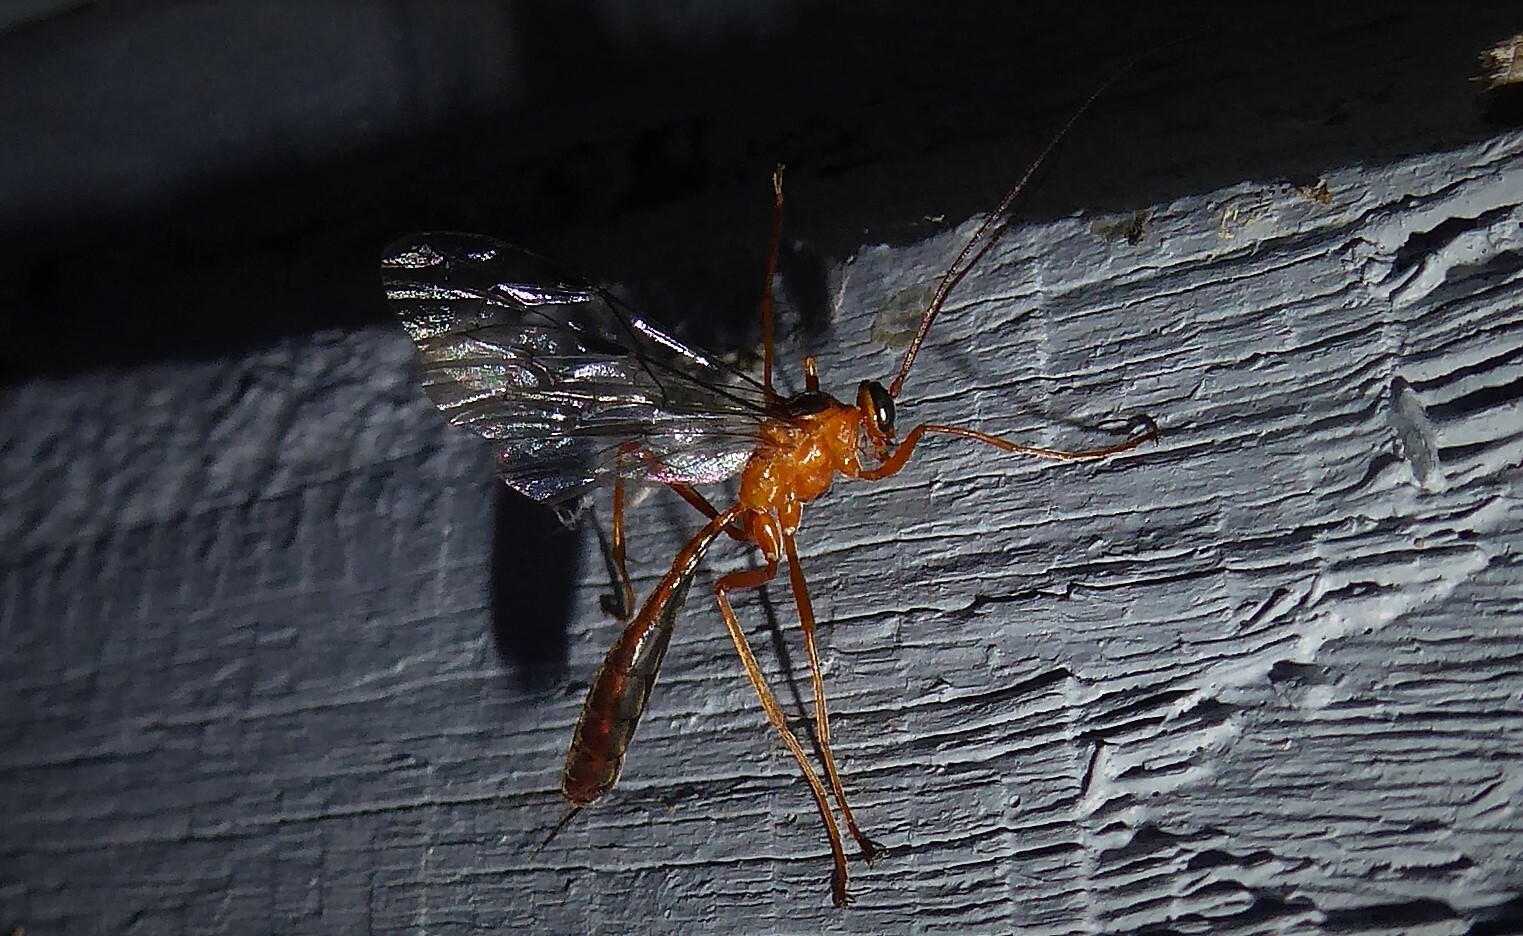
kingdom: Animalia
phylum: Arthropoda
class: Insecta
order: Hymenoptera
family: Ichneumonidae
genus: Netelia
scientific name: Netelia ephippiata
